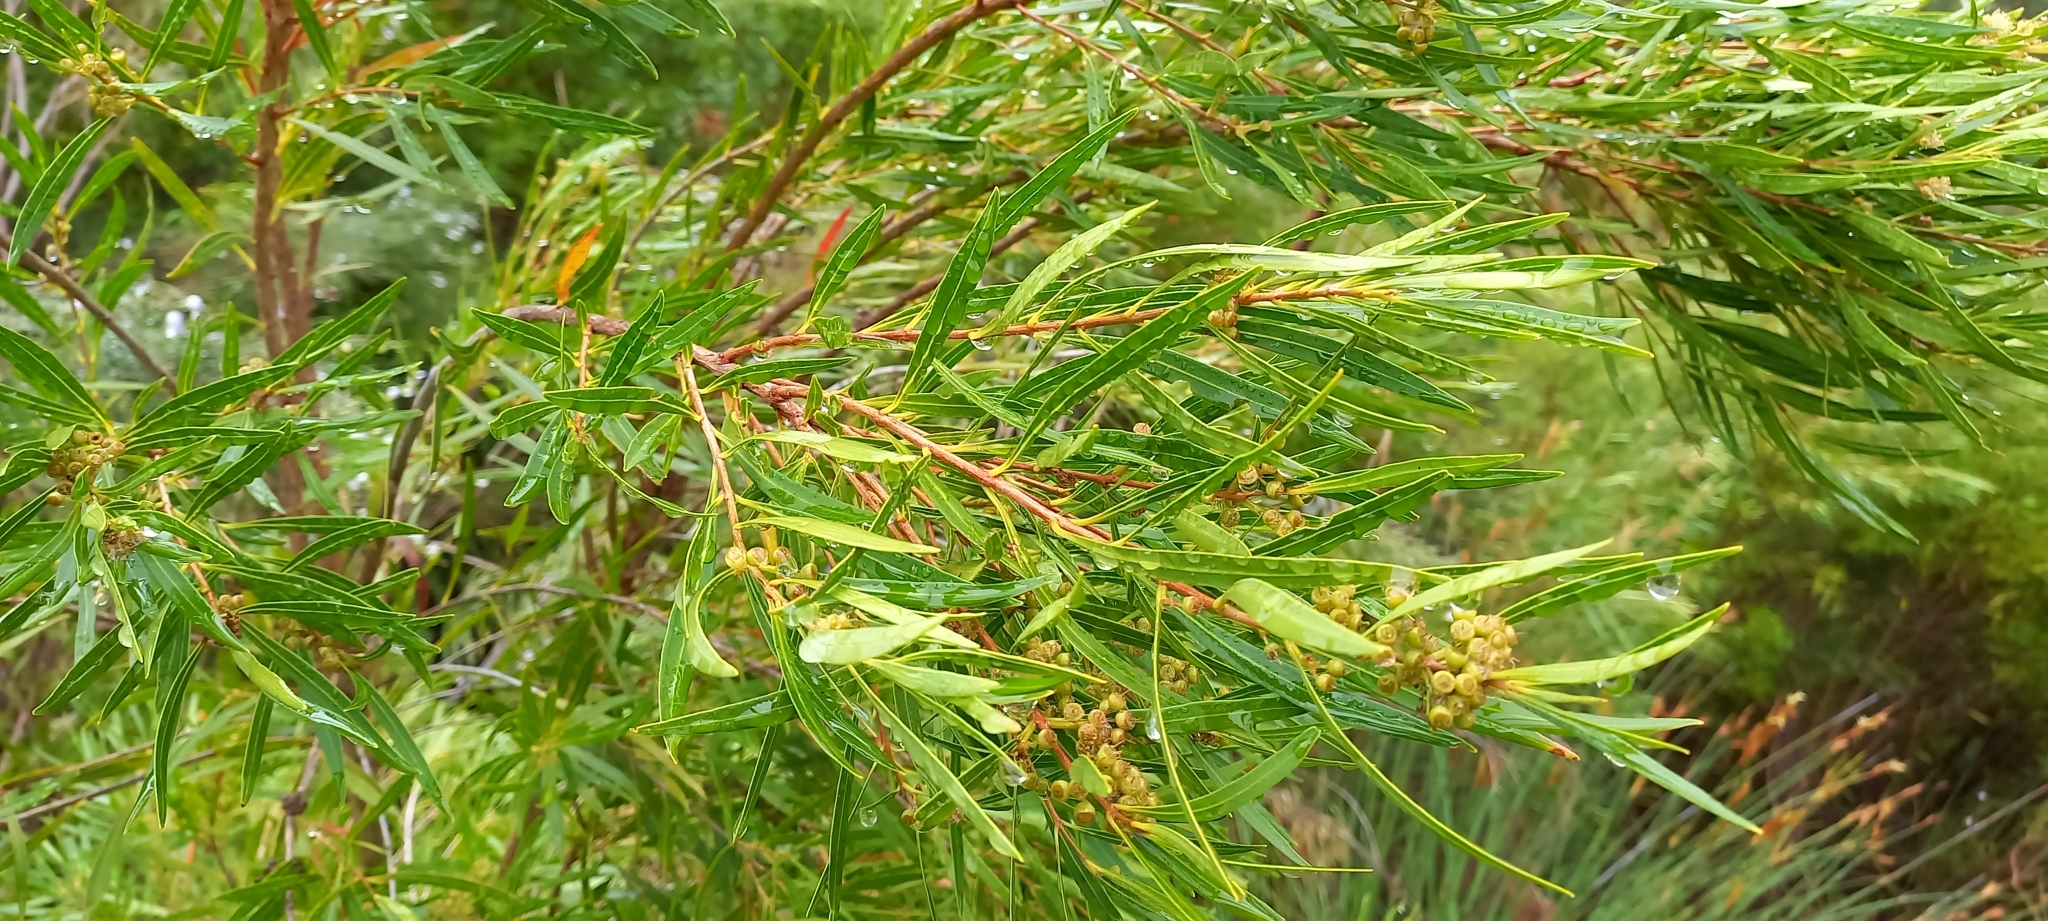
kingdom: Plantae
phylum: Tracheophyta
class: Magnoliopsida
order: Myrtales
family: Myrtaceae
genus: Callistemon
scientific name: Callistemon lanceolatus
